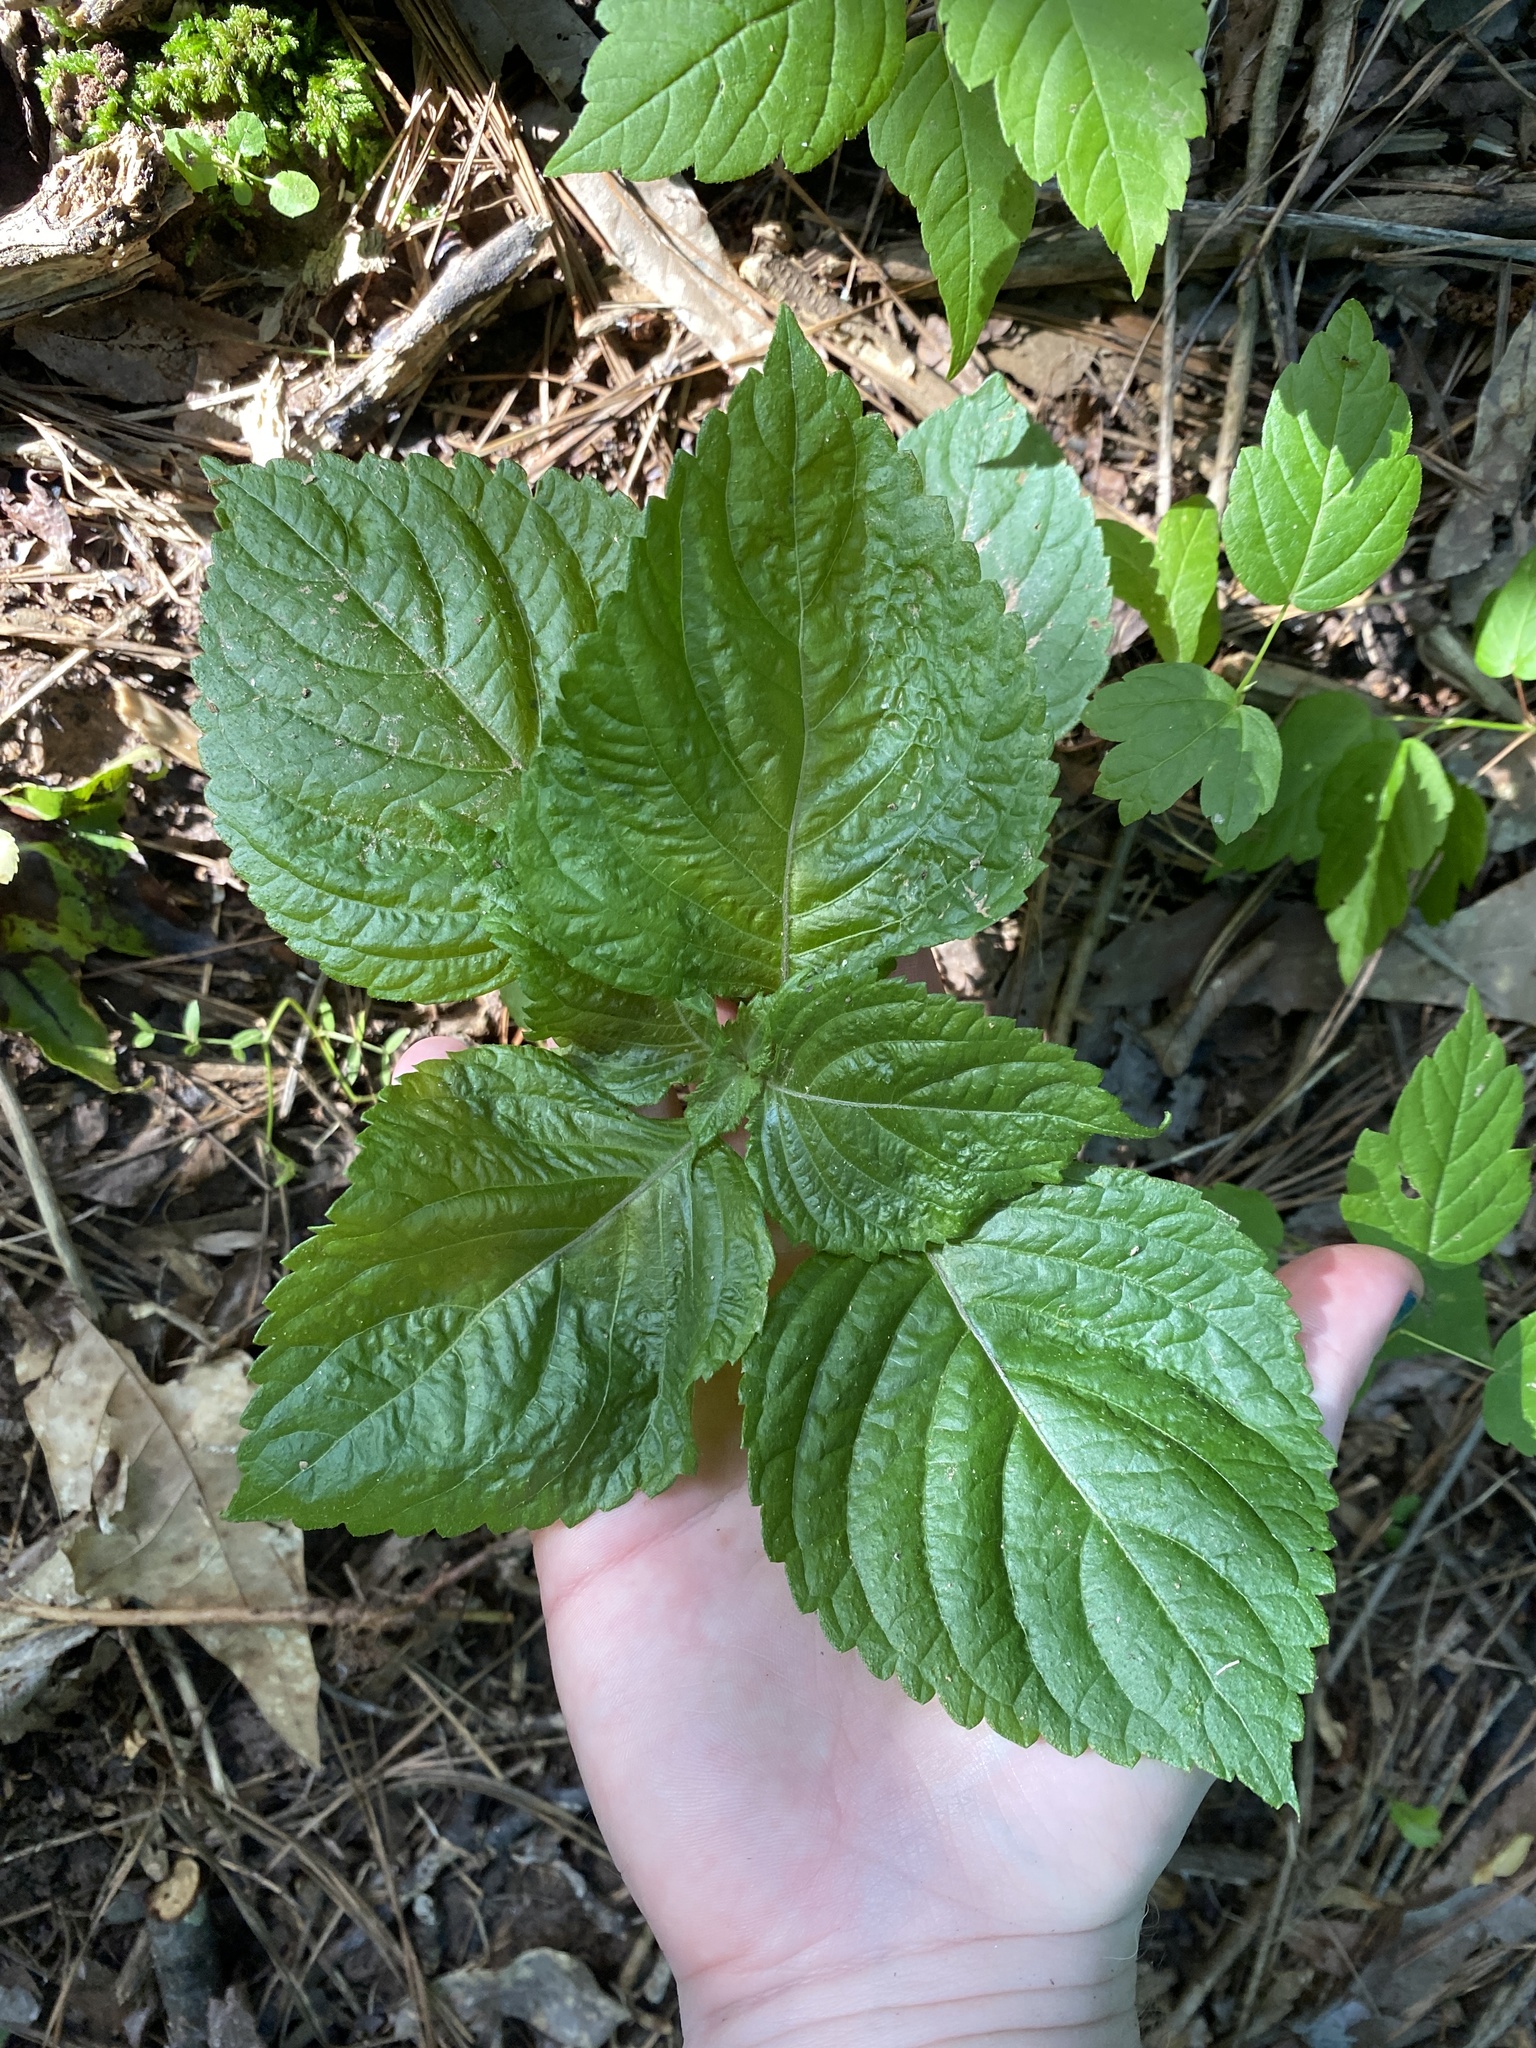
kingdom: Plantae
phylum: Tracheophyta
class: Magnoliopsida
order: Lamiales
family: Lamiaceae
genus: Perilla
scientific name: Perilla frutescens
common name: Perilla
